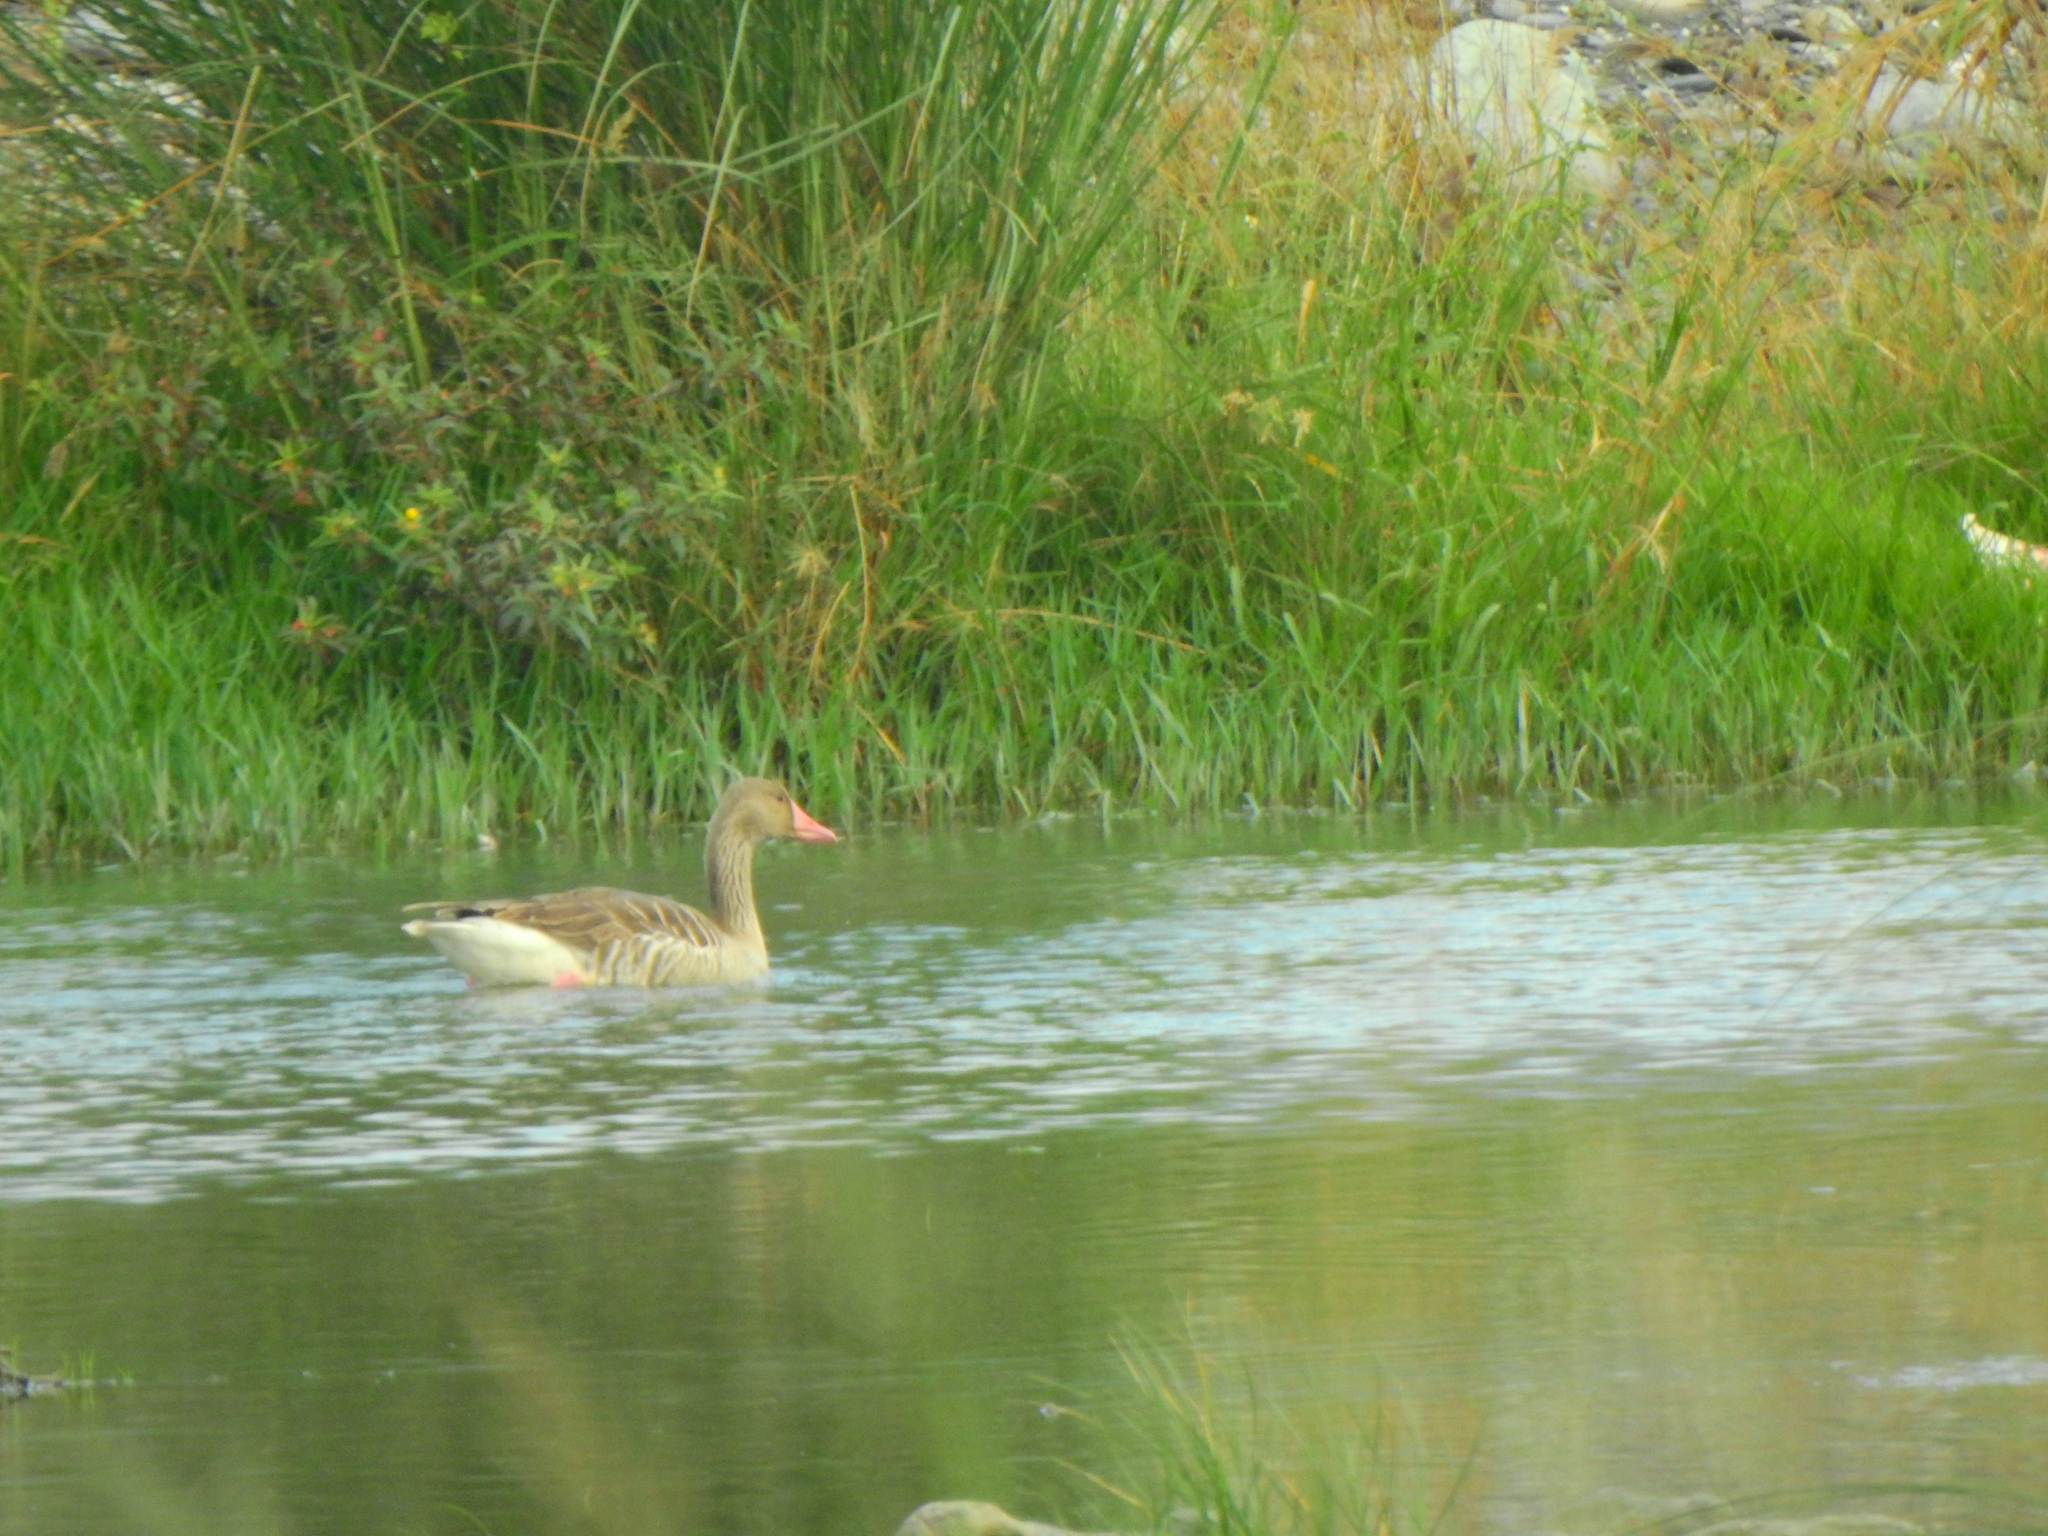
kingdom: Animalia
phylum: Chordata
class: Aves
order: Anseriformes
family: Anatidae
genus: Anser
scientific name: Anser anser
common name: Greylag goose
